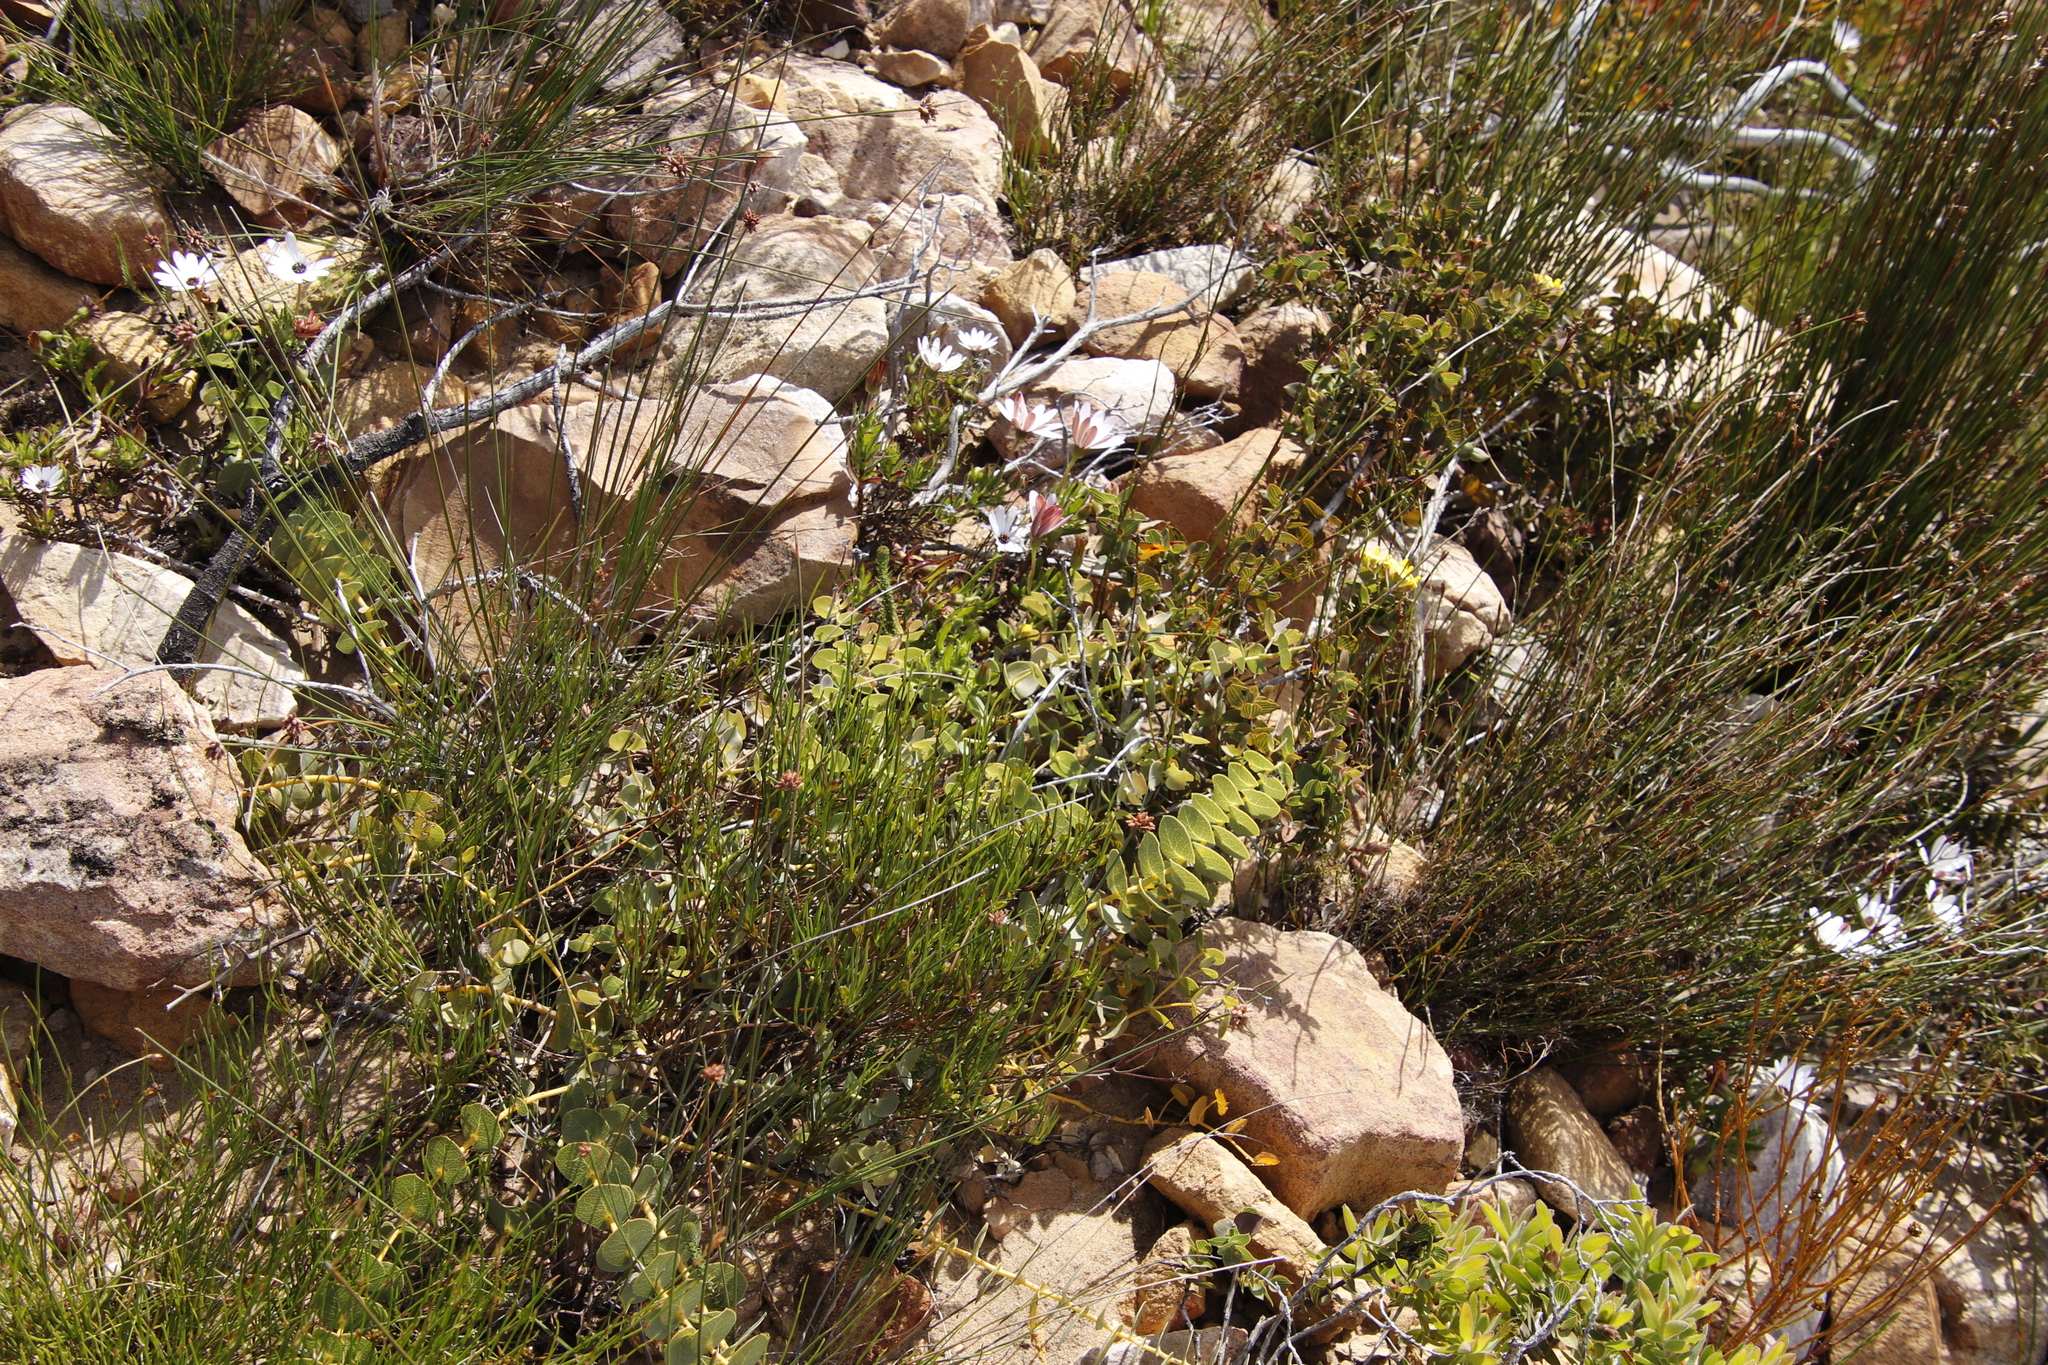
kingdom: Plantae
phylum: Tracheophyta
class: Magnoliopsida
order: Fabales
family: Fabaceae
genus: Aspalathus
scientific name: Aspalathus crenata
